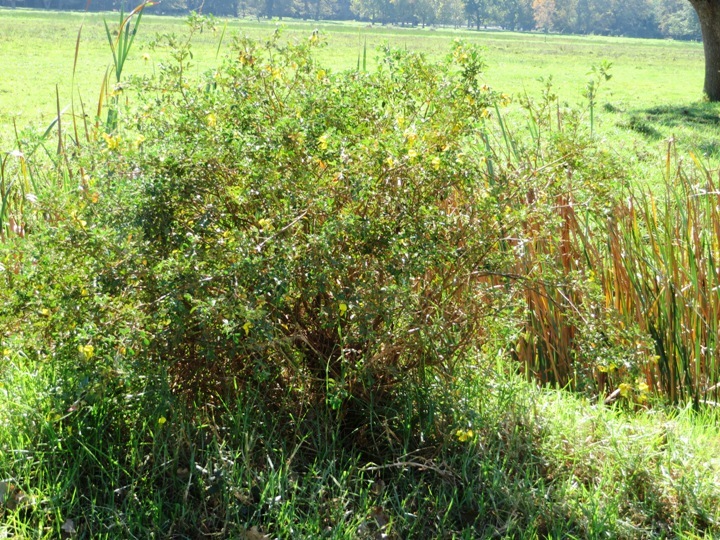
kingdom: Plantae
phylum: Tracheophyta
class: Magnoliopsida
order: Fabales
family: Fabaceae
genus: Crotalaria
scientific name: Crotalaria capensis
